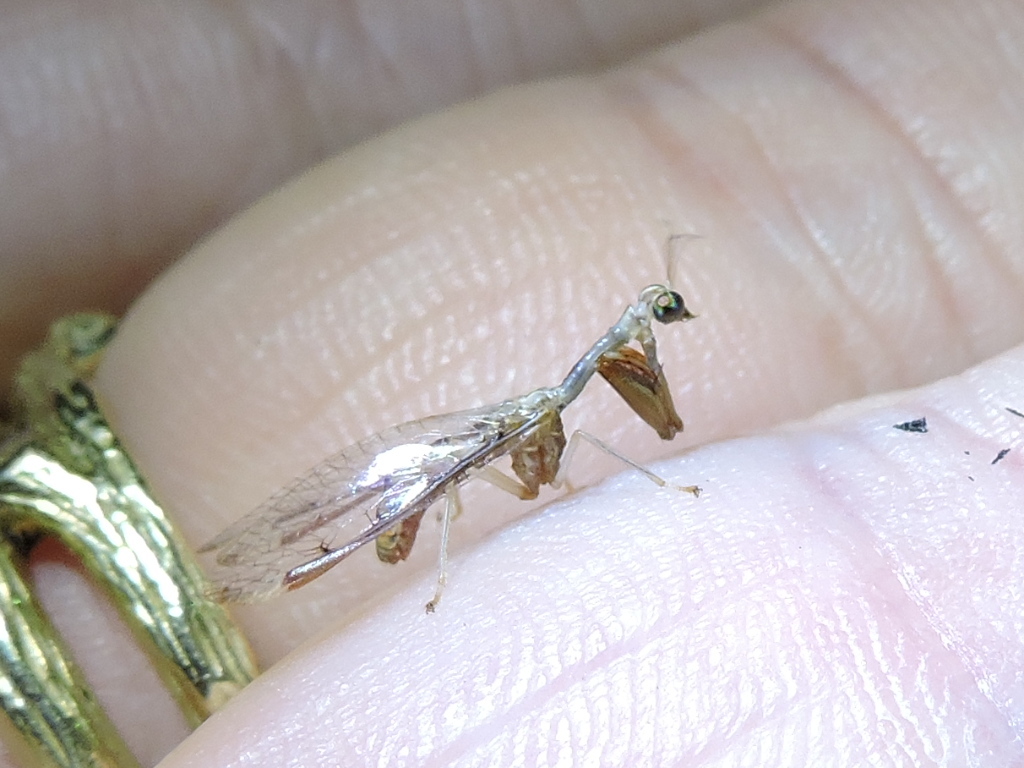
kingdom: Animalia
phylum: Arthropoda
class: Insecta
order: Neuroptera
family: Mantispidae
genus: Dicromantispa
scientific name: Dicromantispa interrupta
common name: Four-spotted mantidfly
